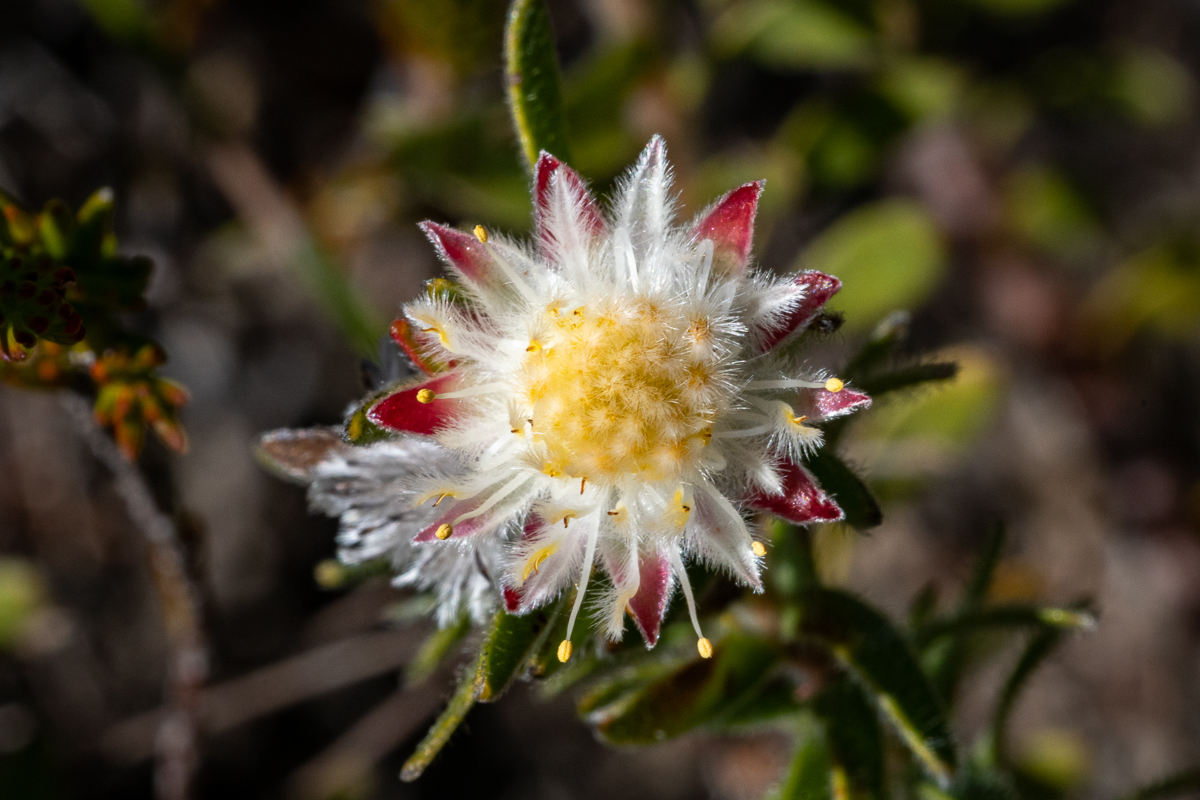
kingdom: Plantae
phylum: Tracheophyta
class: Magnoliopsida
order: Proteales
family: Proteaceae
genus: Diastella
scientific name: Diastella fraterna
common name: Palmiet silkypuff
